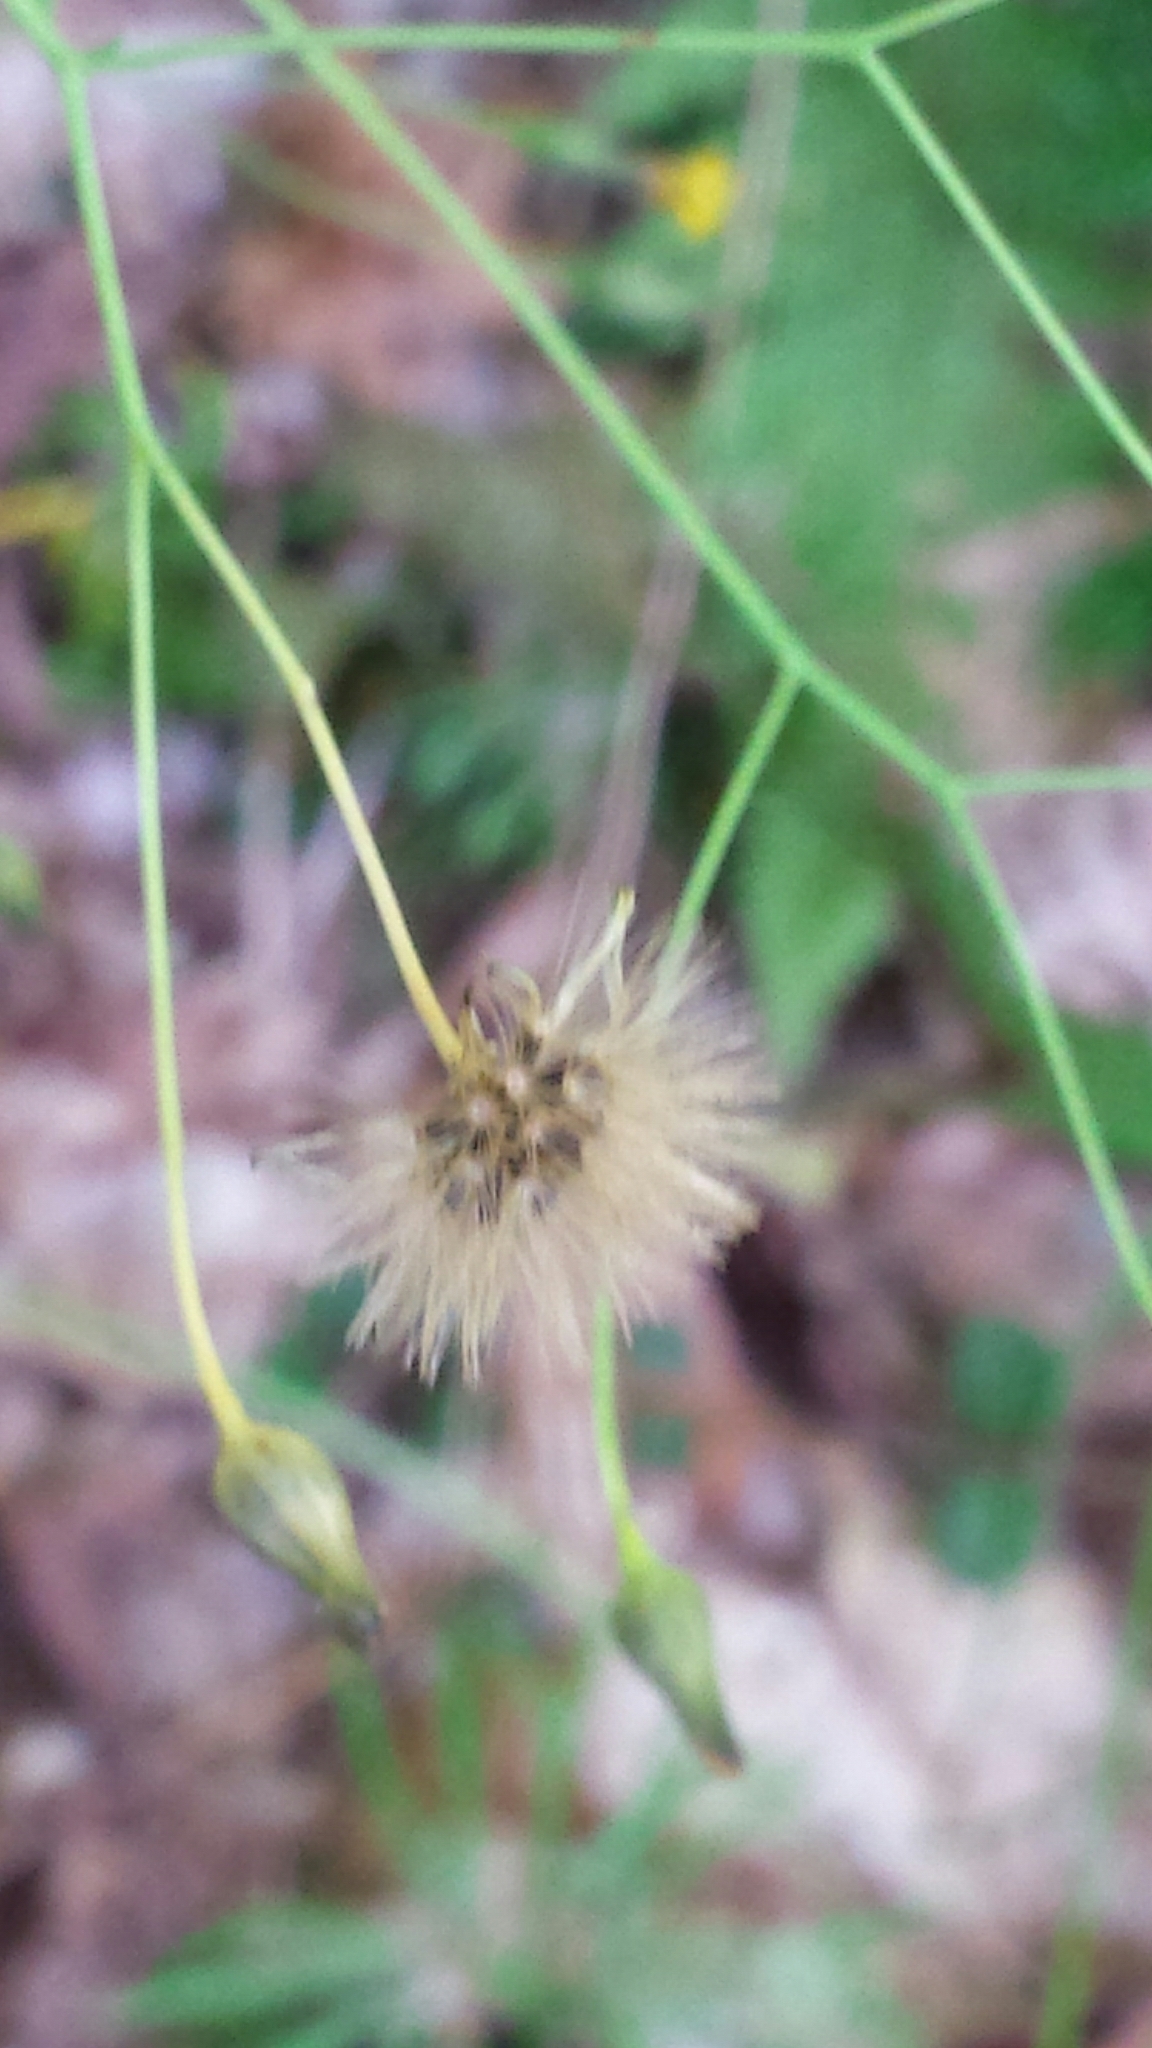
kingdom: Plantae
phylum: Tracheophyta
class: Magnoliopsida
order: Asterales
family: Asteraceae
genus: Hieracium
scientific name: Hieracium paniculatum
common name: Allegheny hawkweed
